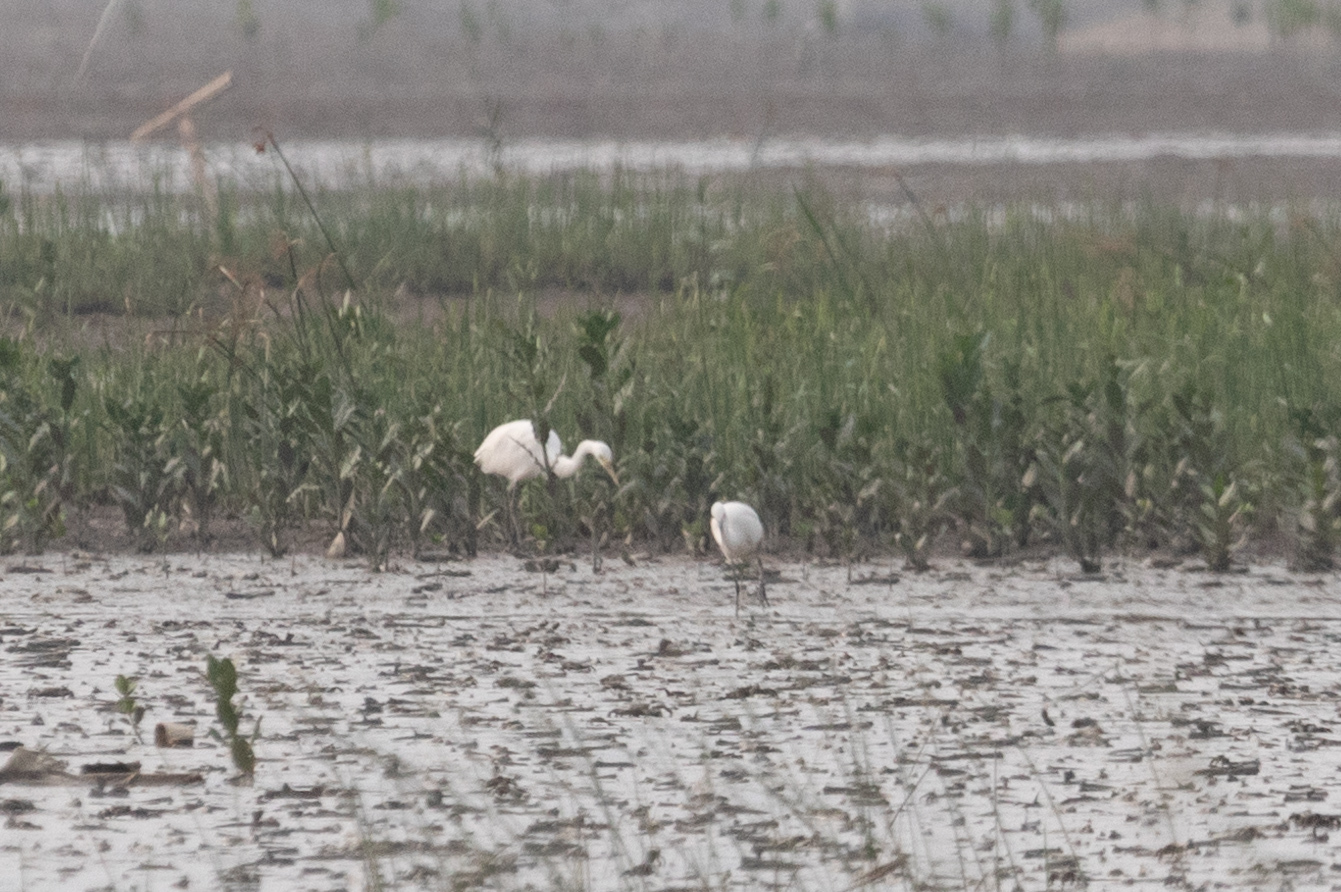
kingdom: Animalia
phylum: Chordata
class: Aves
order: Pelecaniformes
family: Ardeidae
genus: Egretta
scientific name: Egretta intermedia
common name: Intermediate egret
